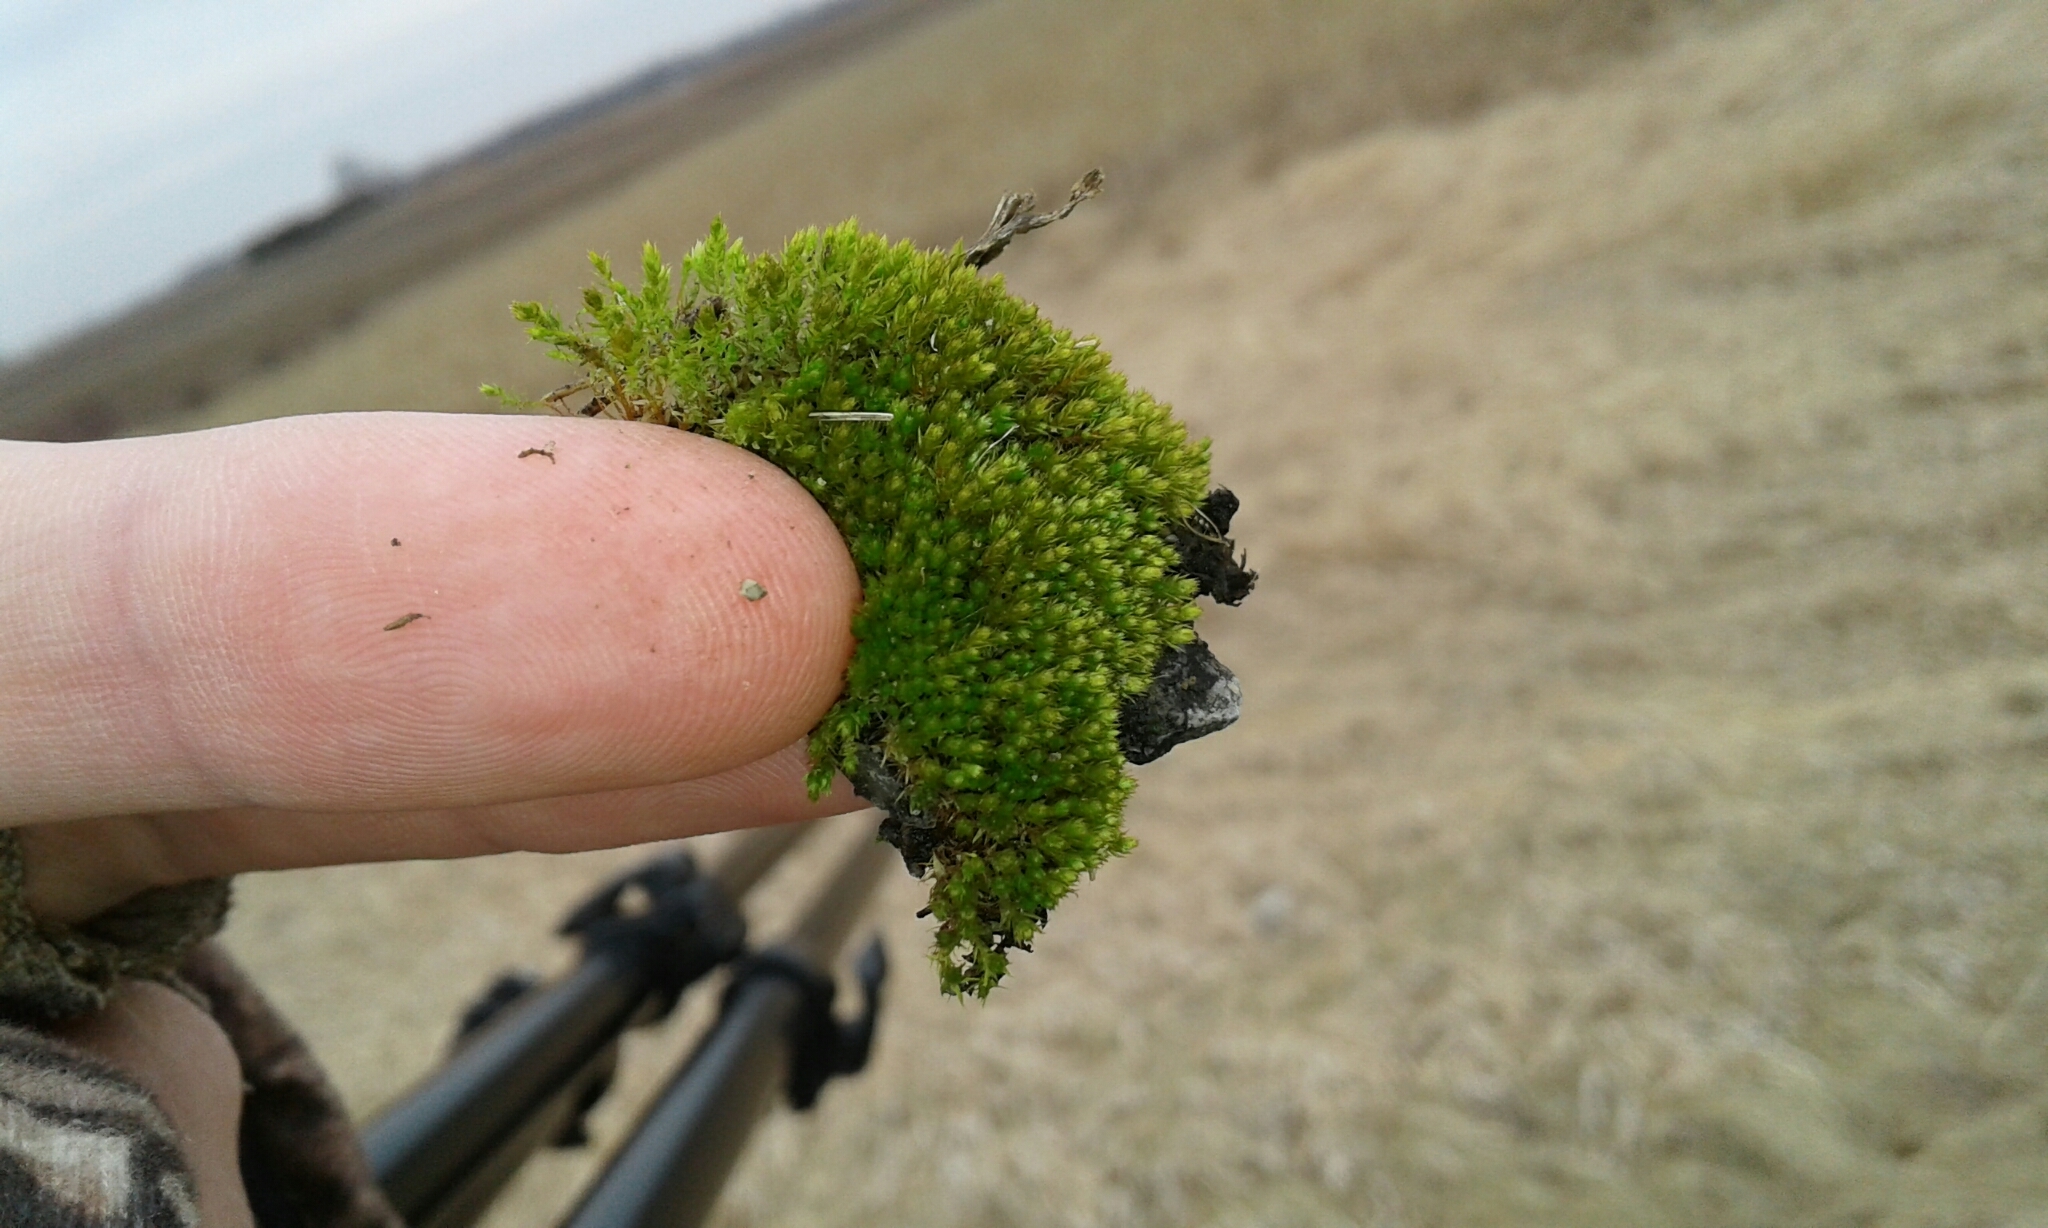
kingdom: Plantae
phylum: Bryophyta
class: Bryopsida
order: Bryales
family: Bryaceae
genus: Gemmabryum
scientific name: Gemmabryum caespiticium
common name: Handbell moss
